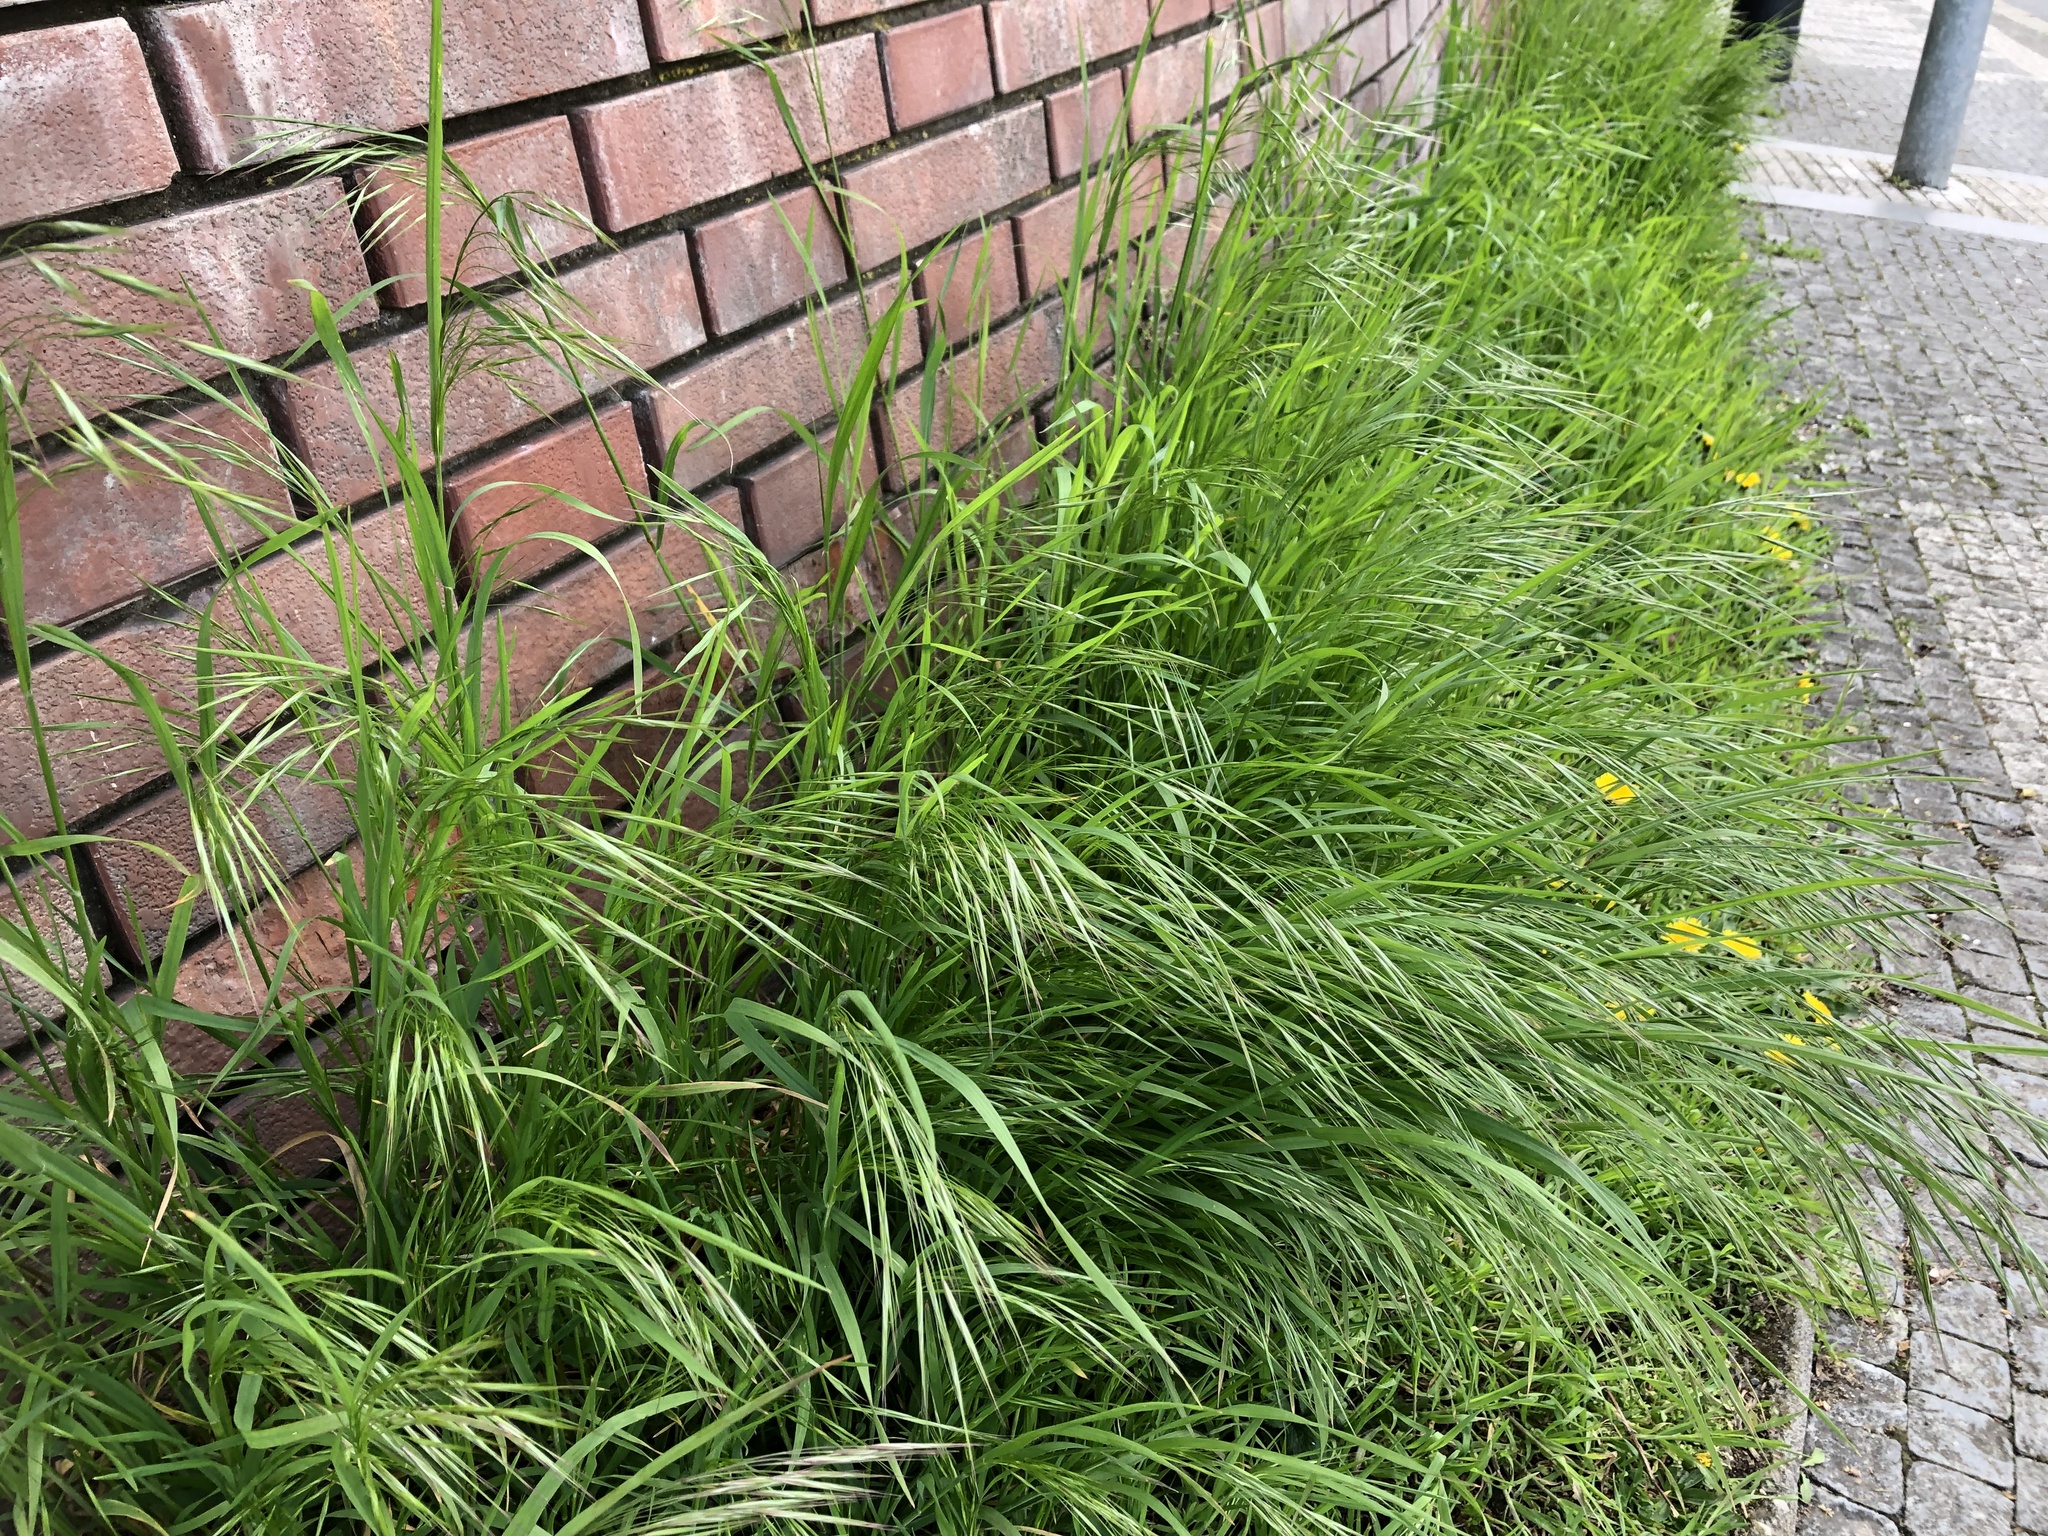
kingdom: Plantae
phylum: Tracheophyta
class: Liliopsida
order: Poales
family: Poaceae
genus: Bromus
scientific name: Bromus sterilis
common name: Poverty brome
